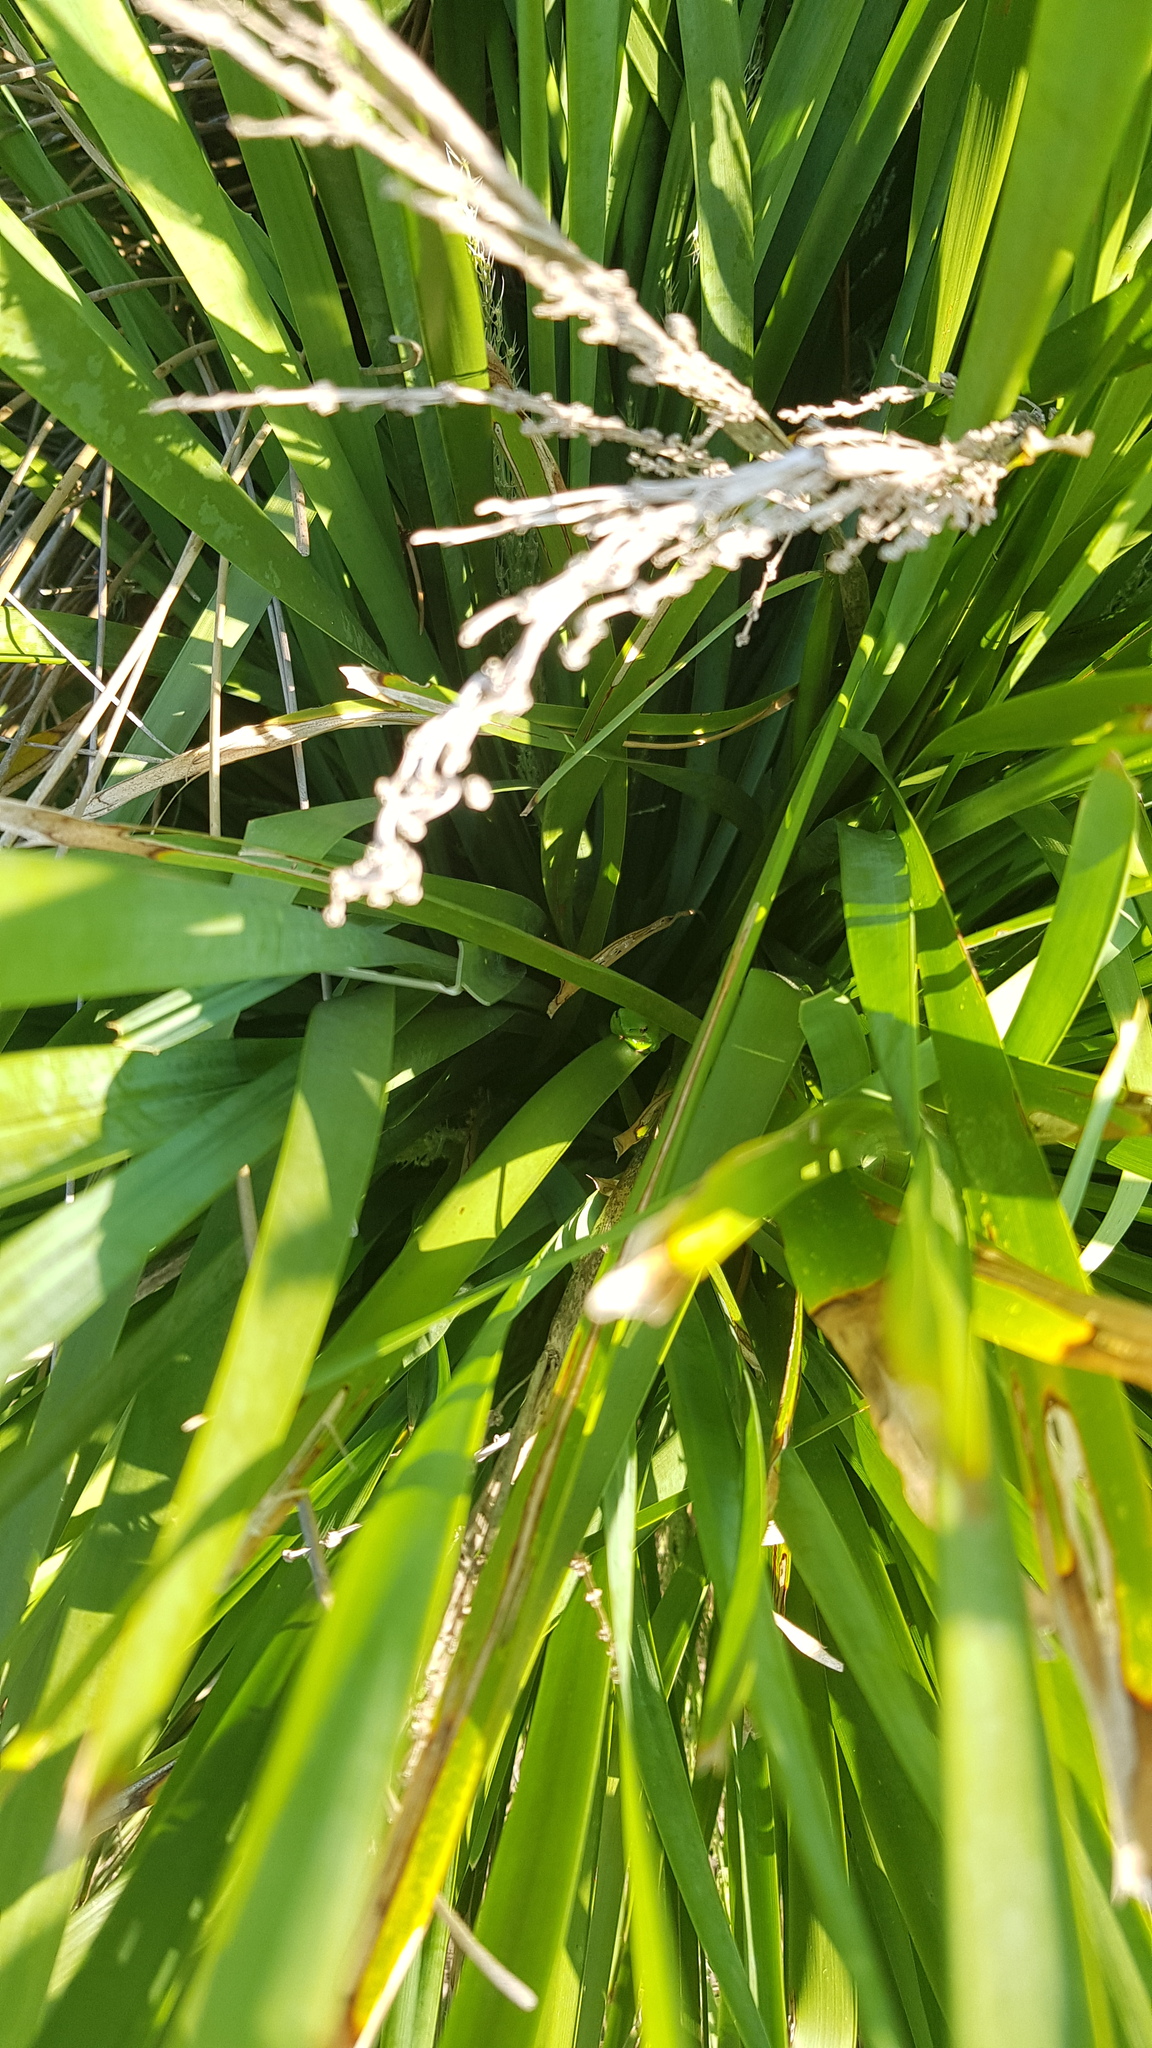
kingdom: Animalia
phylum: Chordata
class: Amphibia
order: Anura
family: Pelodryadidae
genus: Litoria
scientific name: Litoria fallax
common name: Eastern dwarf treefrog
